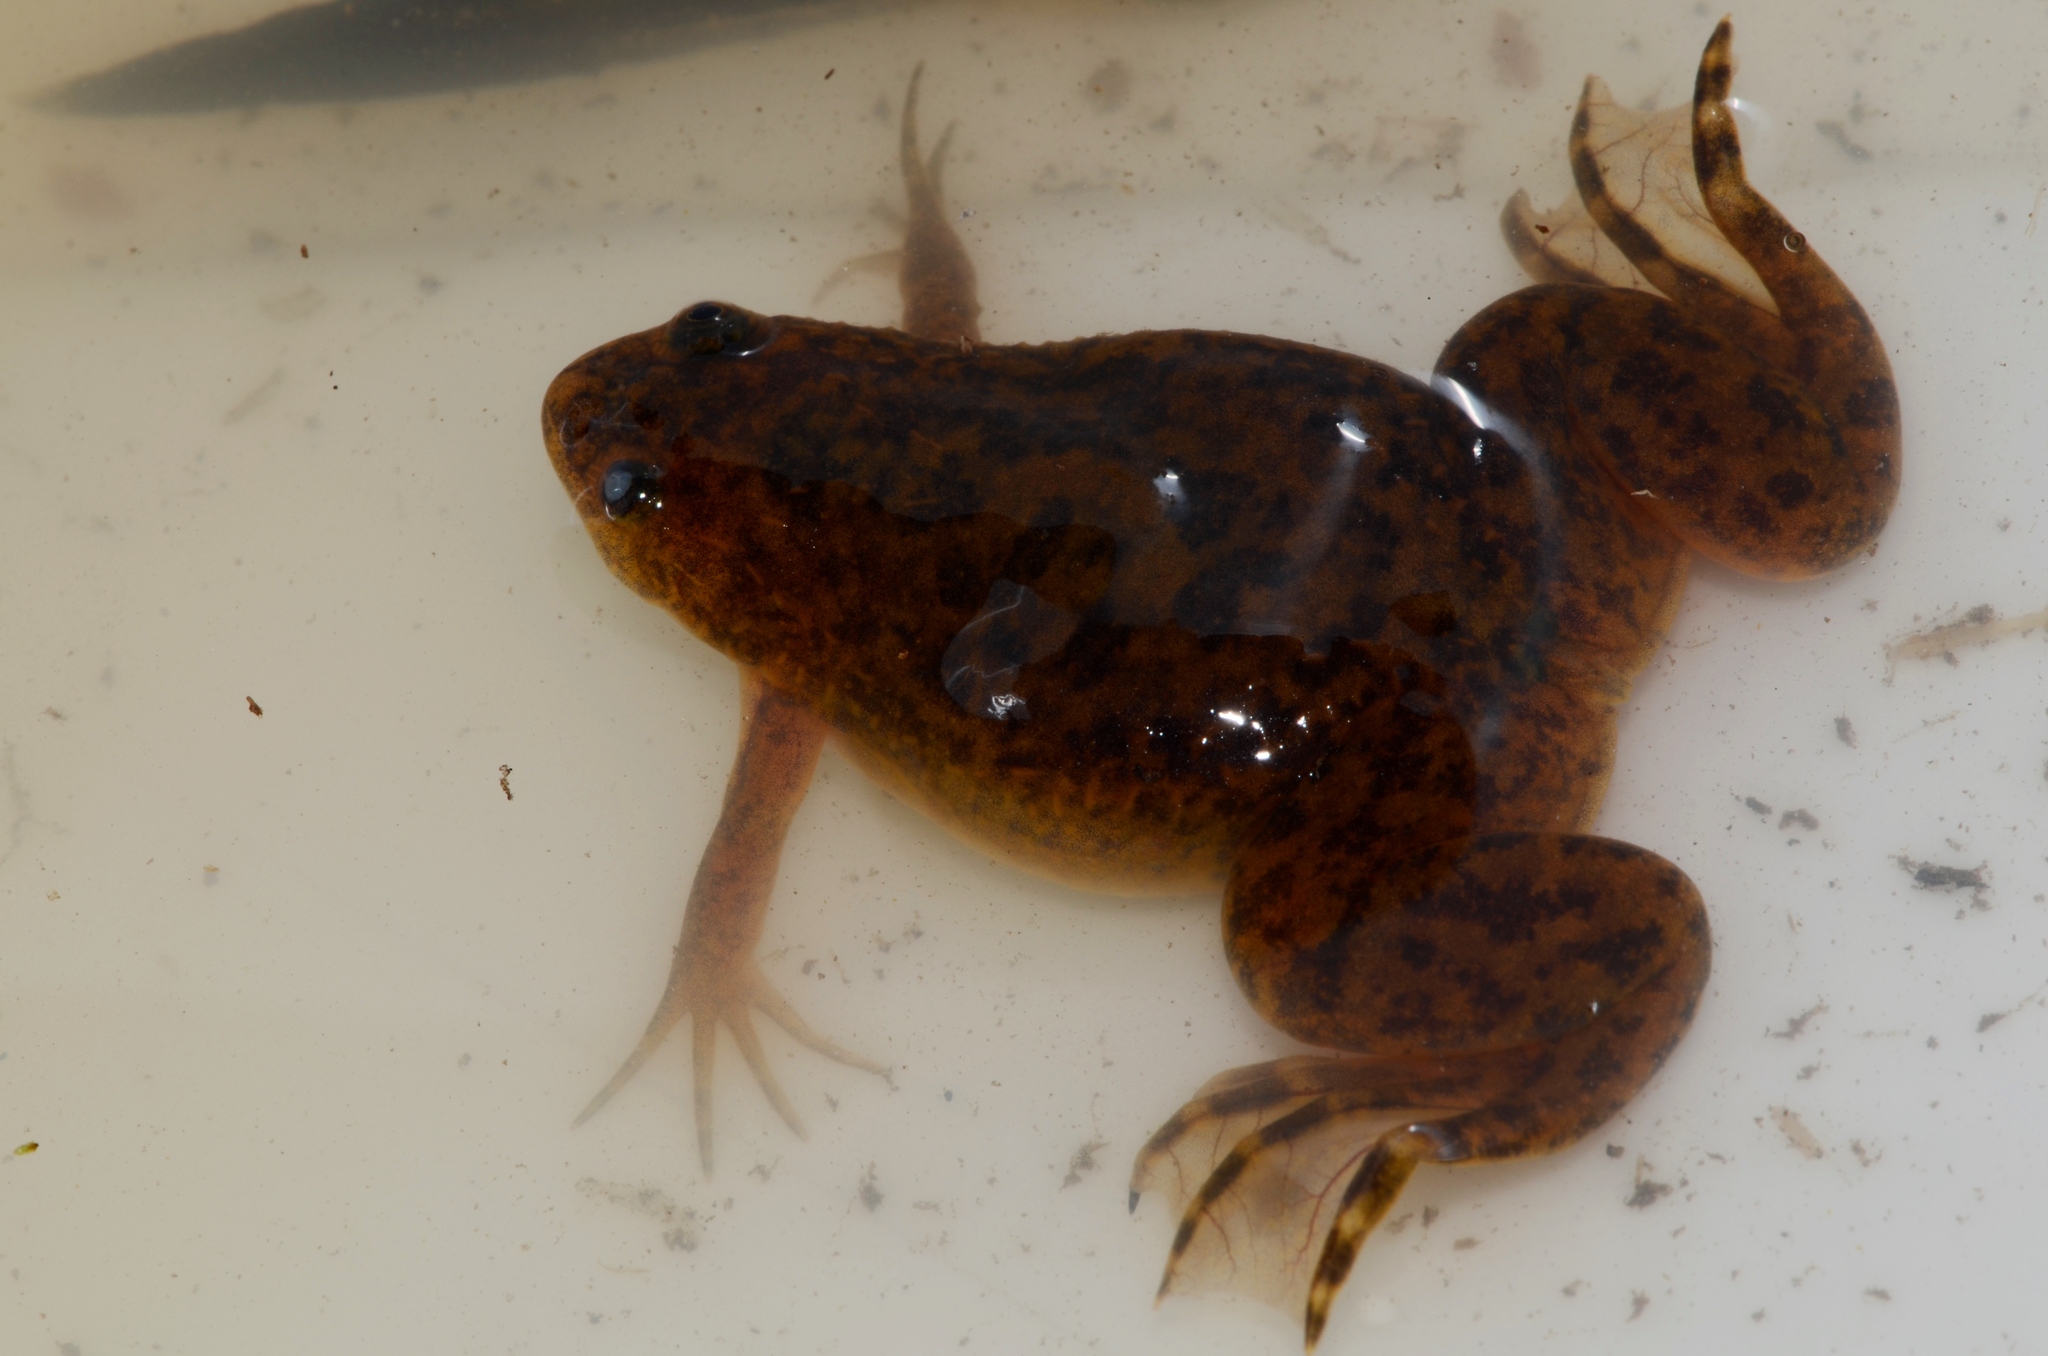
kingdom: Animalia
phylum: Chordata
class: Amphibia
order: Anura
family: Pipidae
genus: Xenopus
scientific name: Xenopus laevis
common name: African clawed frog
